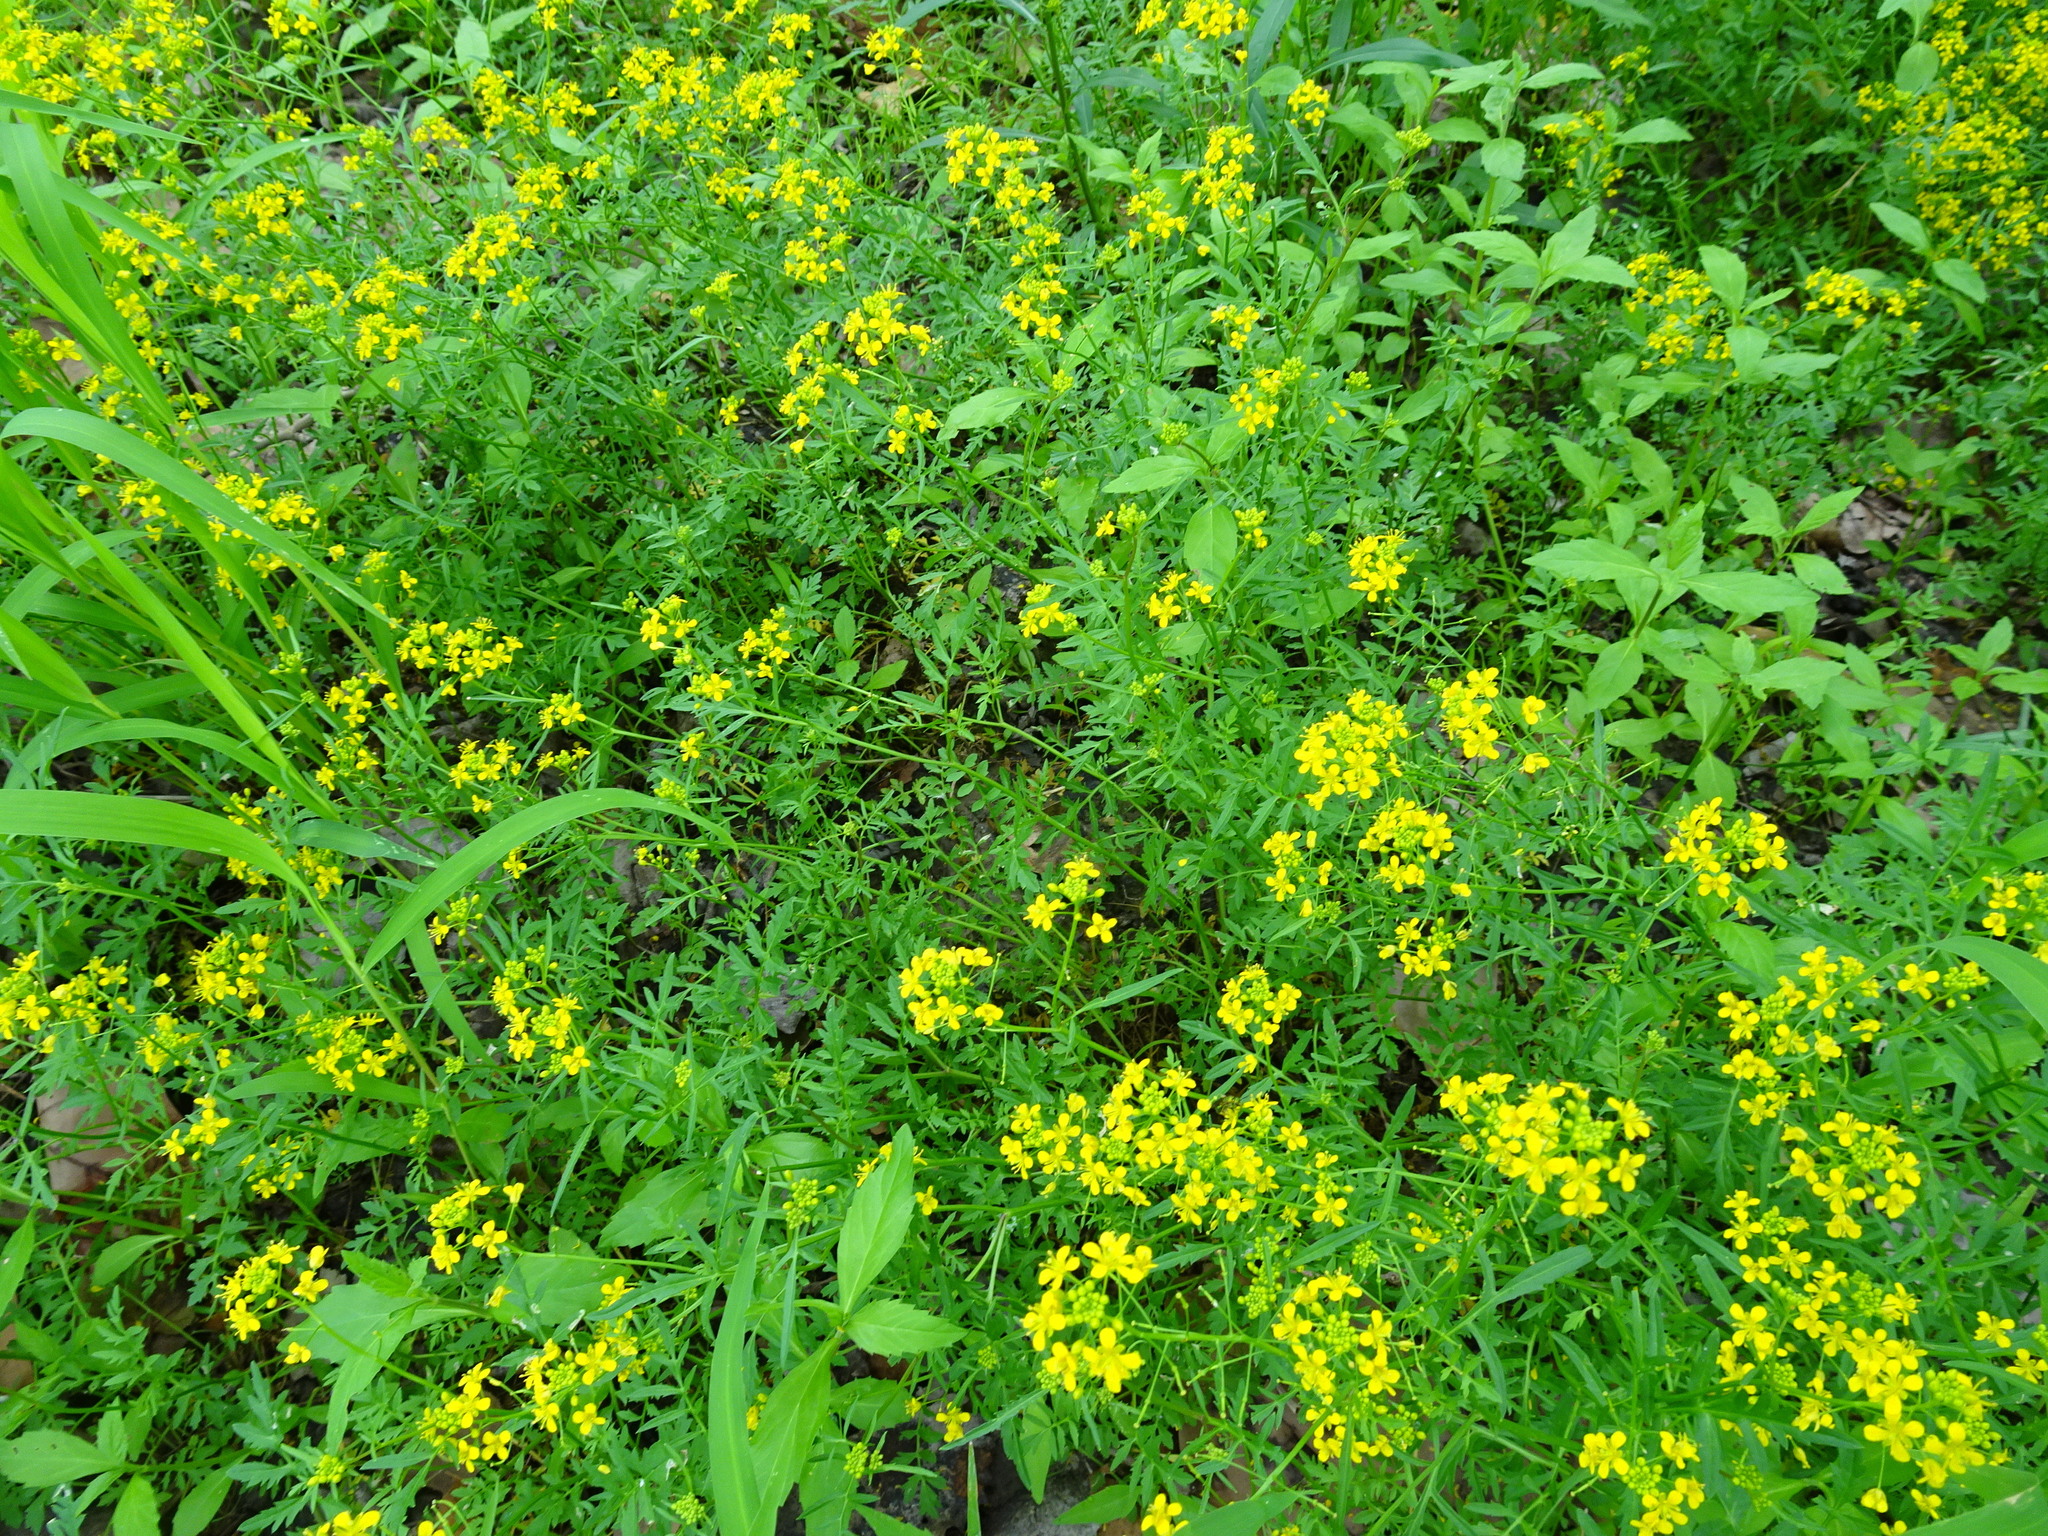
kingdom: Plantae
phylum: Tracheophyta
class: Magnoliopsida
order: Brassicales
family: Brassicaceae
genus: Rorippa
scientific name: Rorippa sylvestris
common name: Creeping yellowcress
